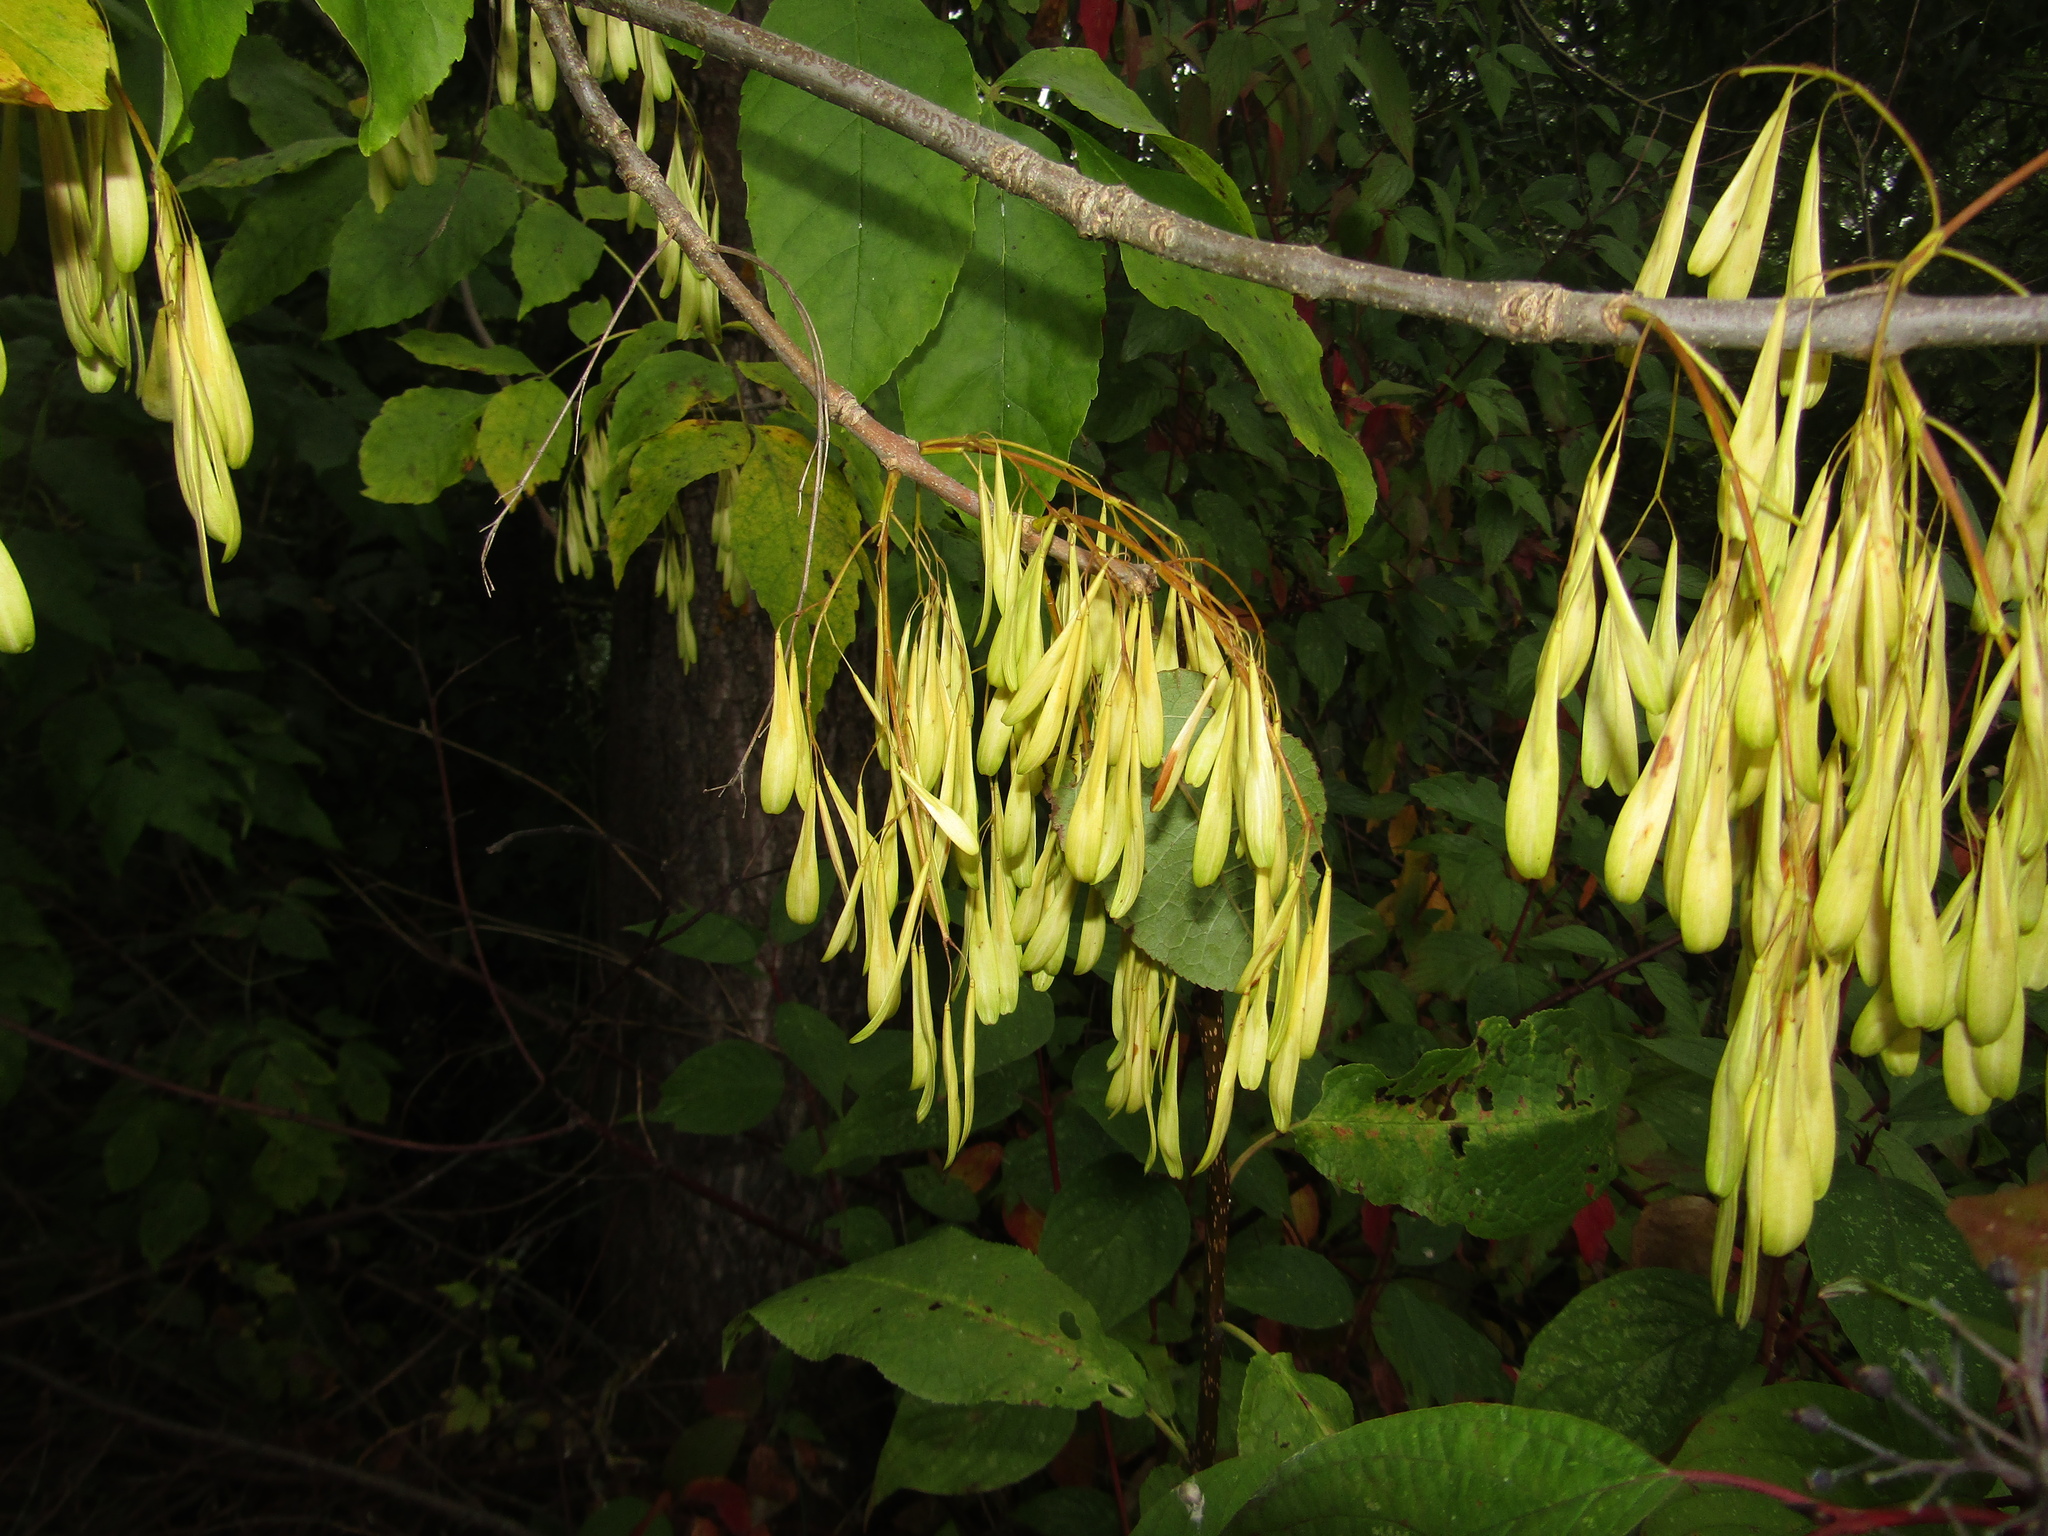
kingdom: Plantae
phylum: Tracheophyta
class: Magnoliopsida
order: Lamiales
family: Oleaceae
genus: Fraxinus
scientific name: Fraxinus pennsylvanica
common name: Green ash
